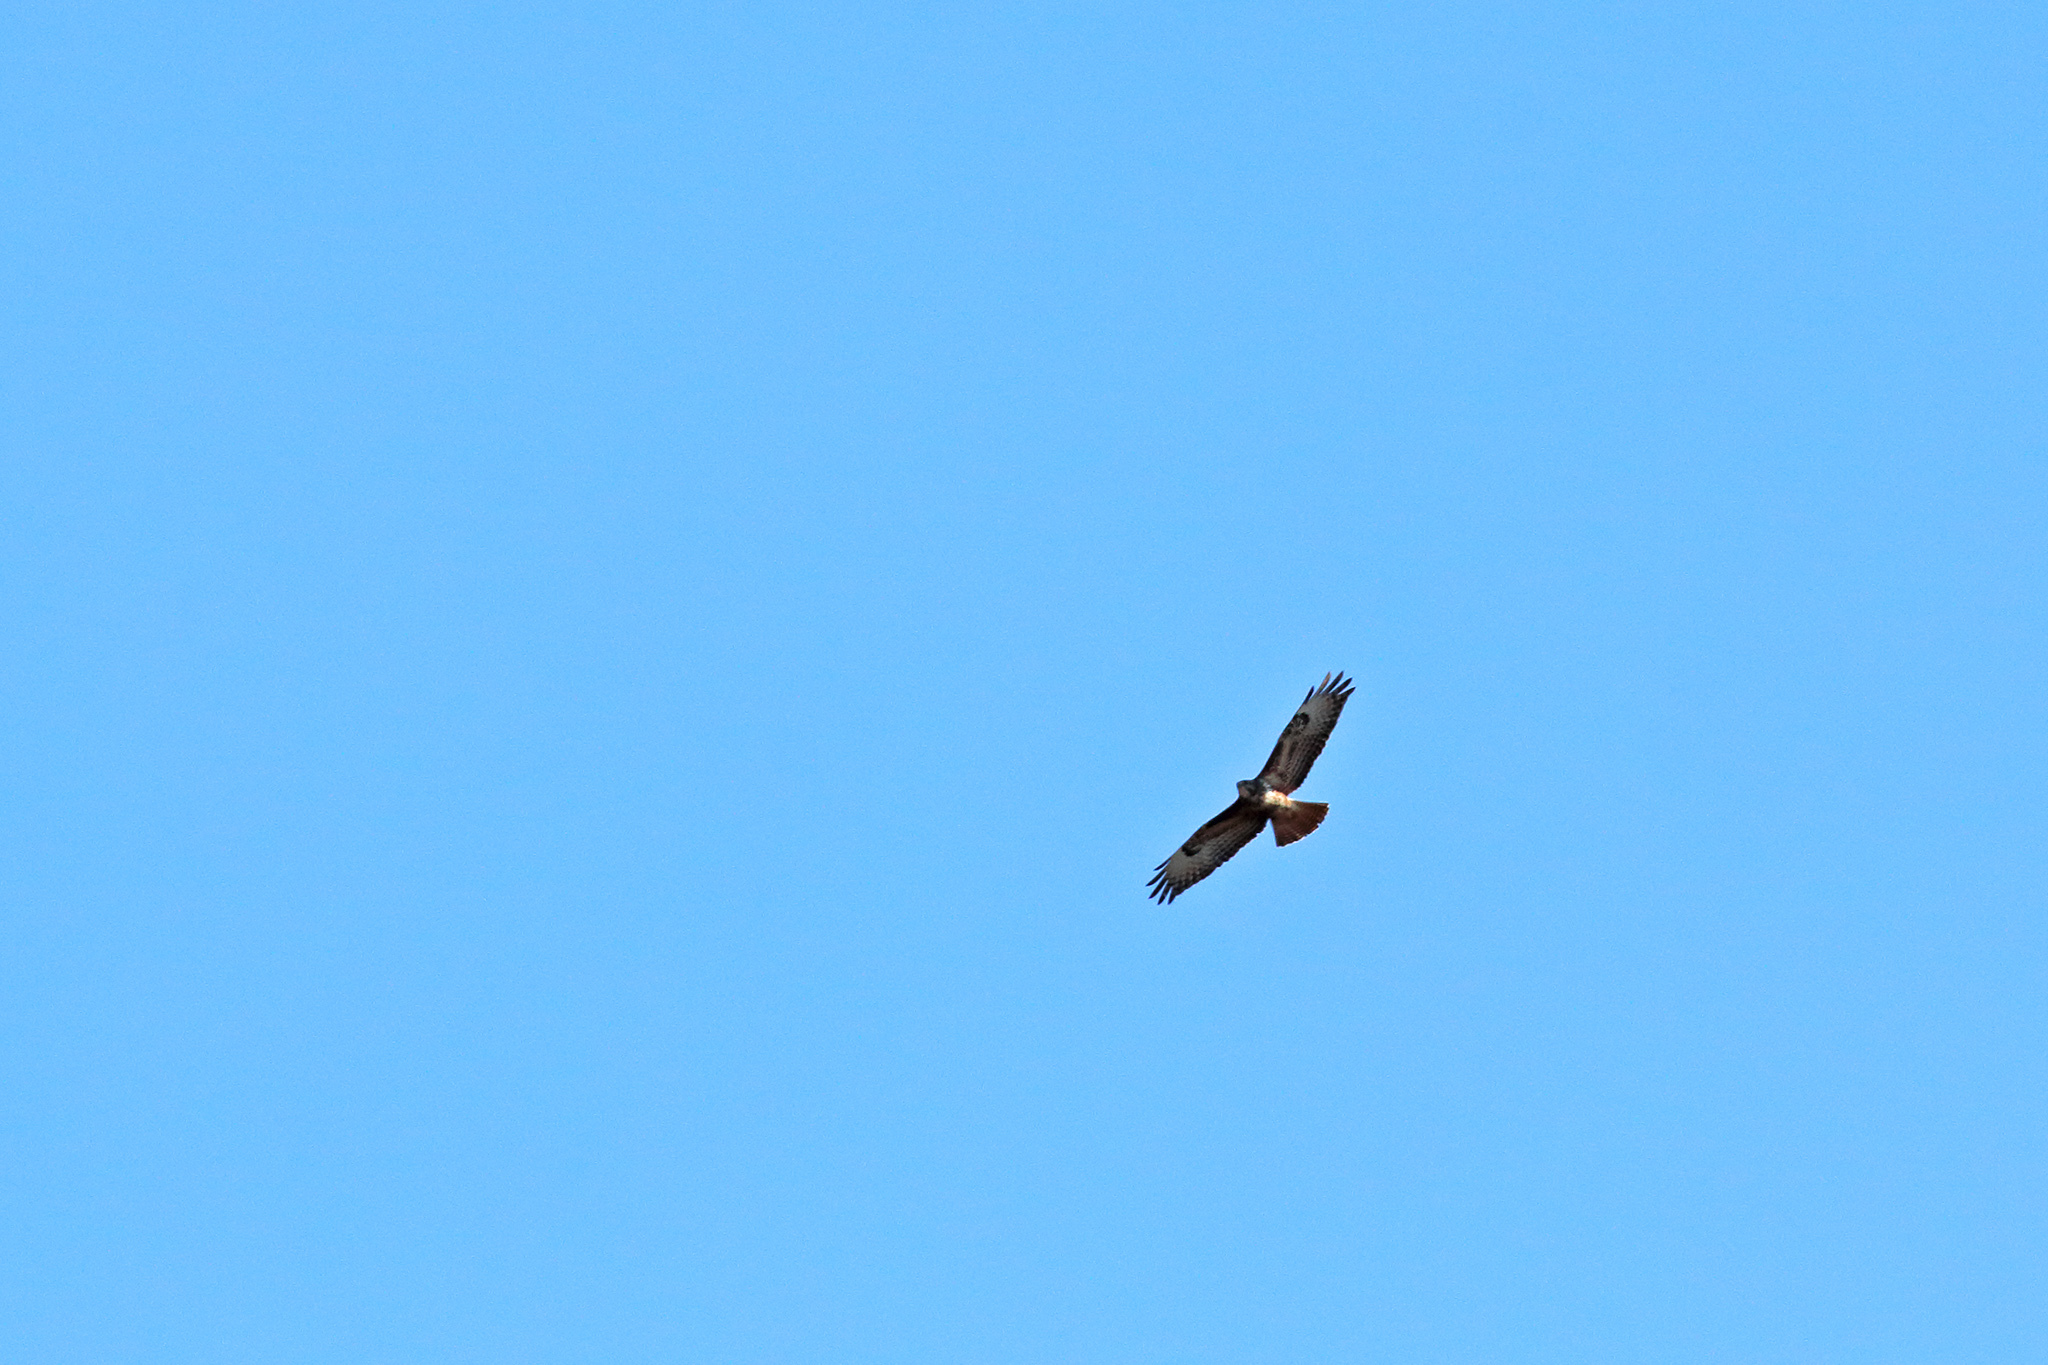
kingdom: Animalia
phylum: Chordata
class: Aves
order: Accipitriformes
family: Accipitridae
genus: Buteo
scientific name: Buteo buteo
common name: Common buzzard
